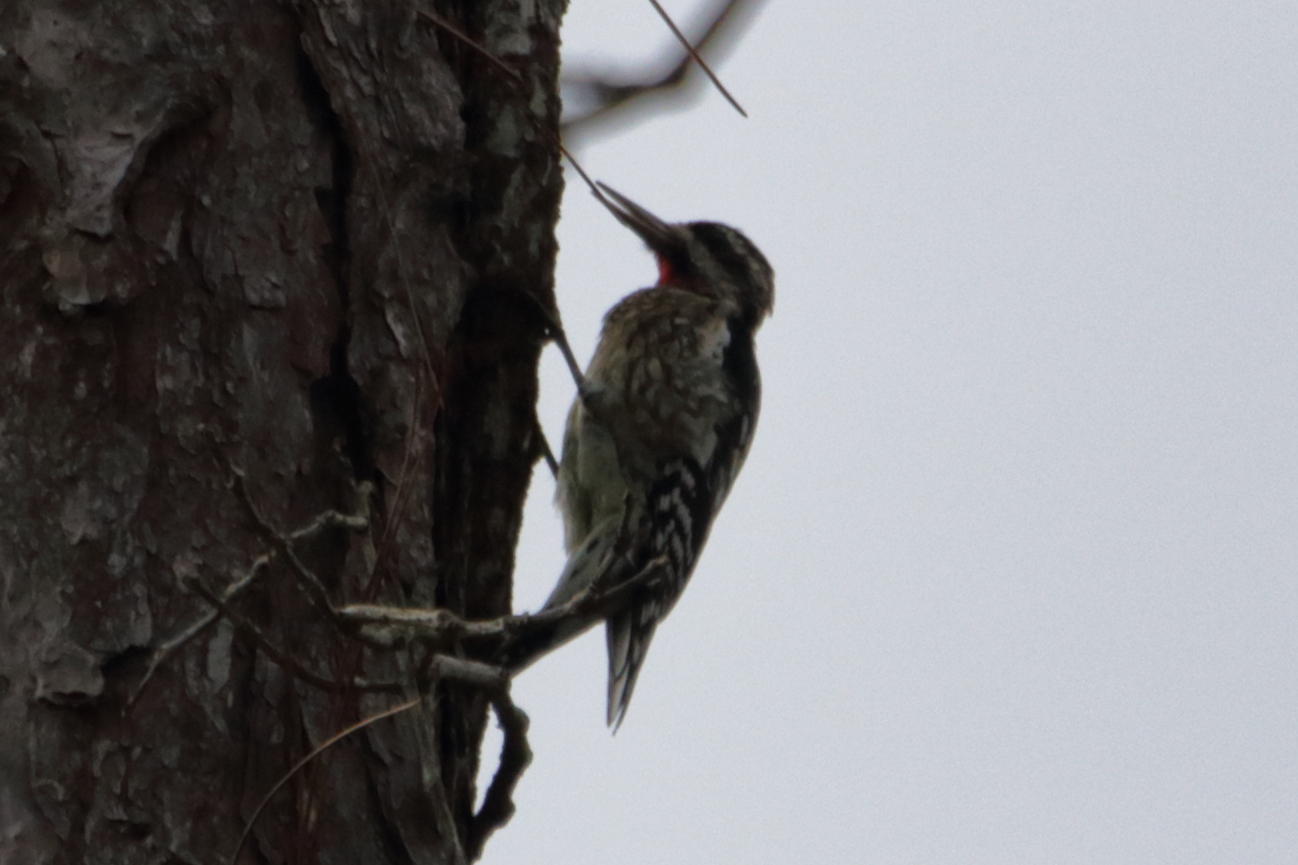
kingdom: Animalia
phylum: Chordata
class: Aves
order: Piciformes
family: Picidae
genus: Sphyrapicus
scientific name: Sphyrapicus varius
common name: Yellow-bellied sapsucker
